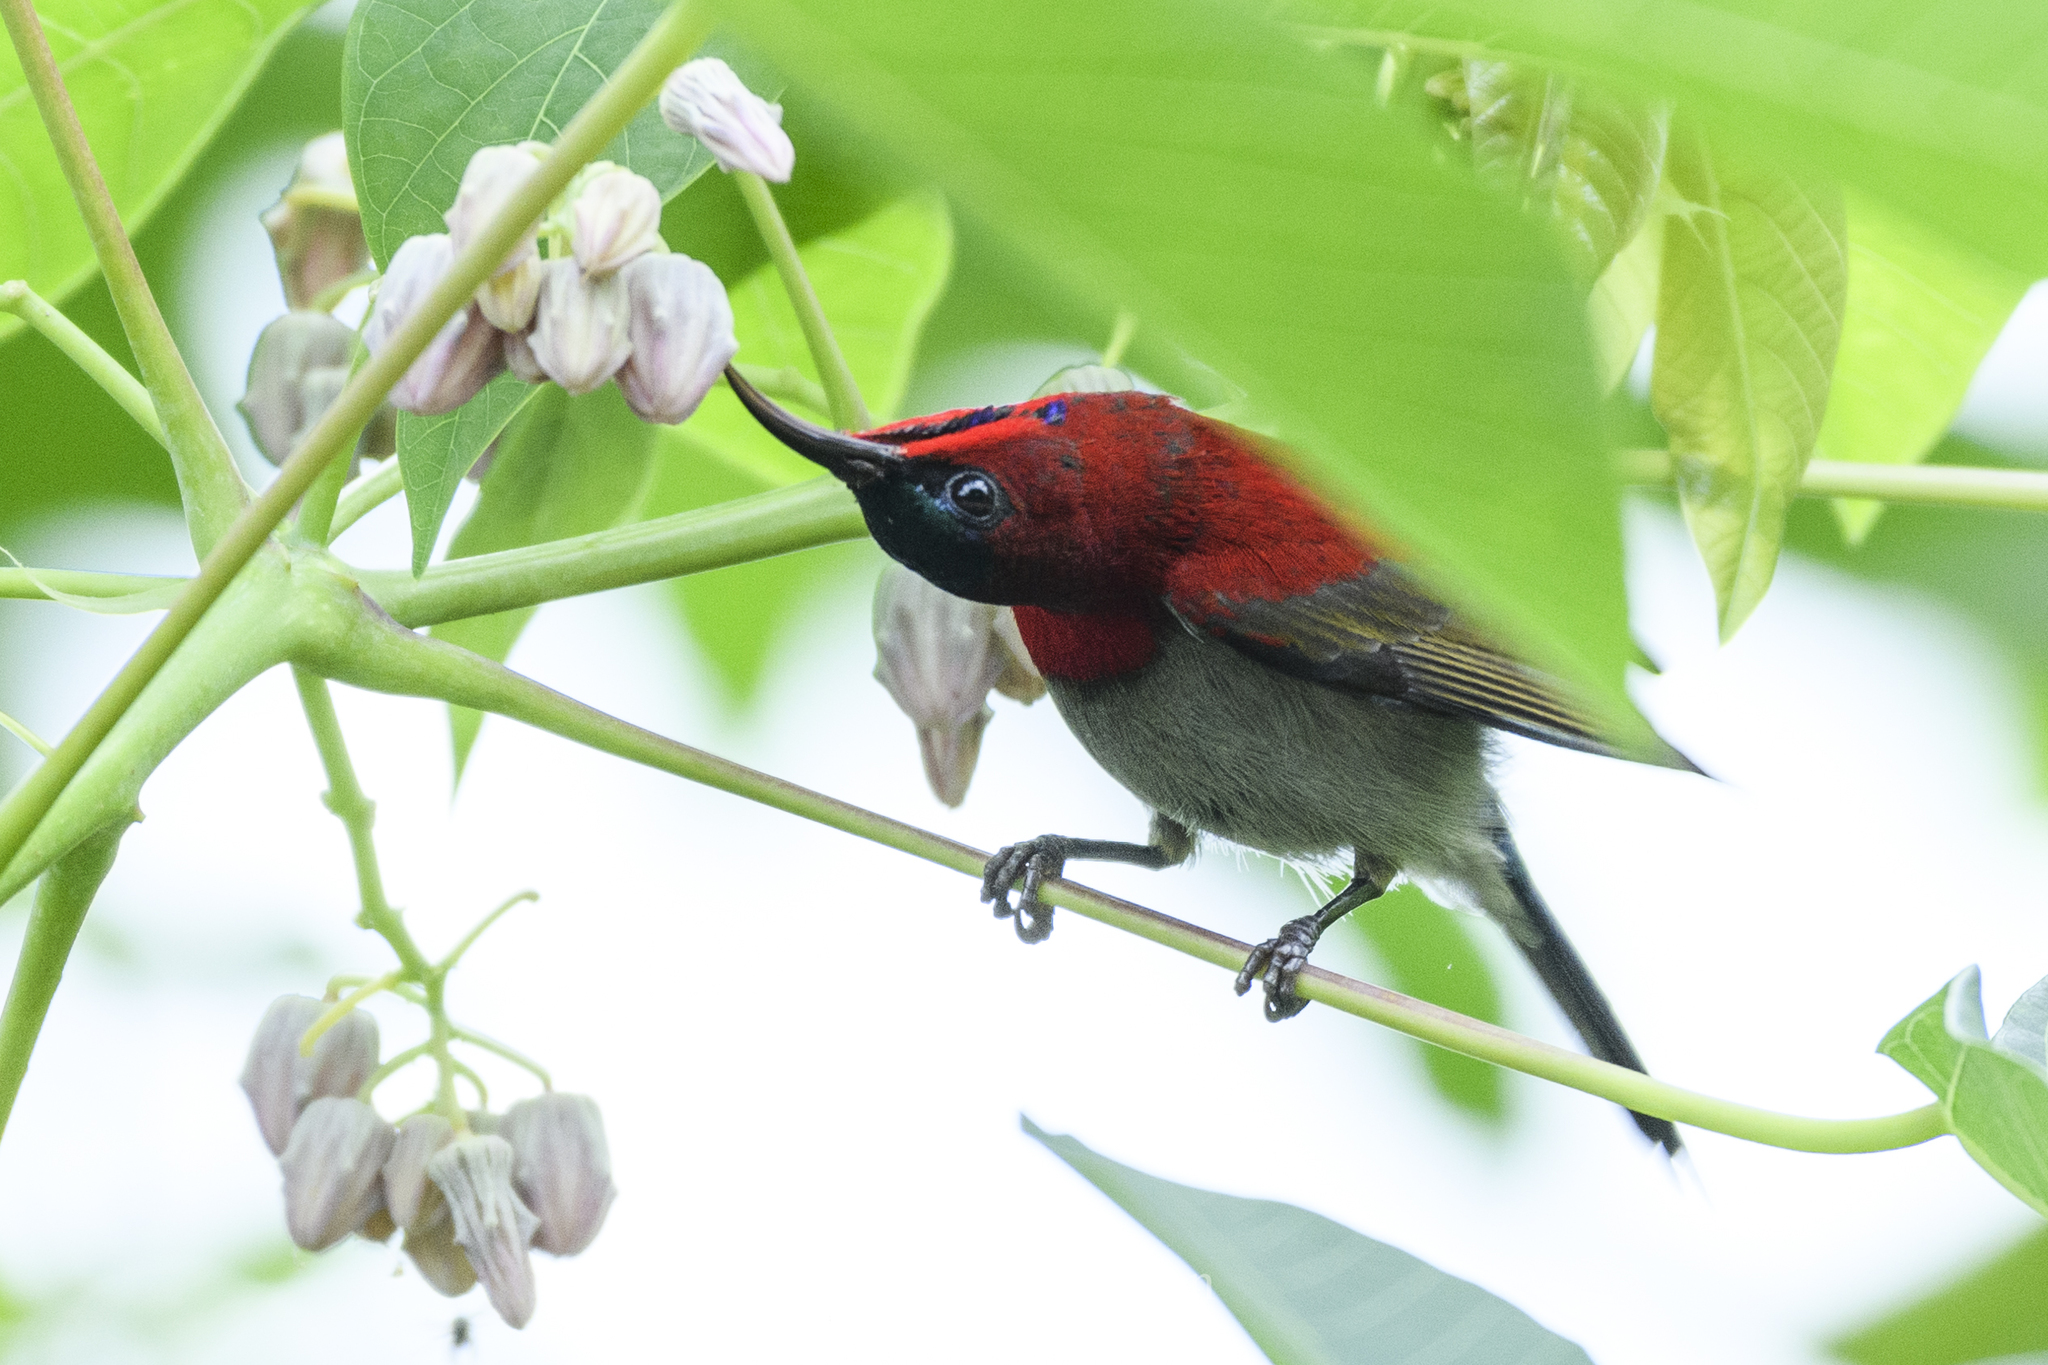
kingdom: Animalia
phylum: Chordata
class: Aves
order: Passeriformes
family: Nectariniidae
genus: Aethopyga
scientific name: Aethopyga siparaja
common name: Crimson sunbird
